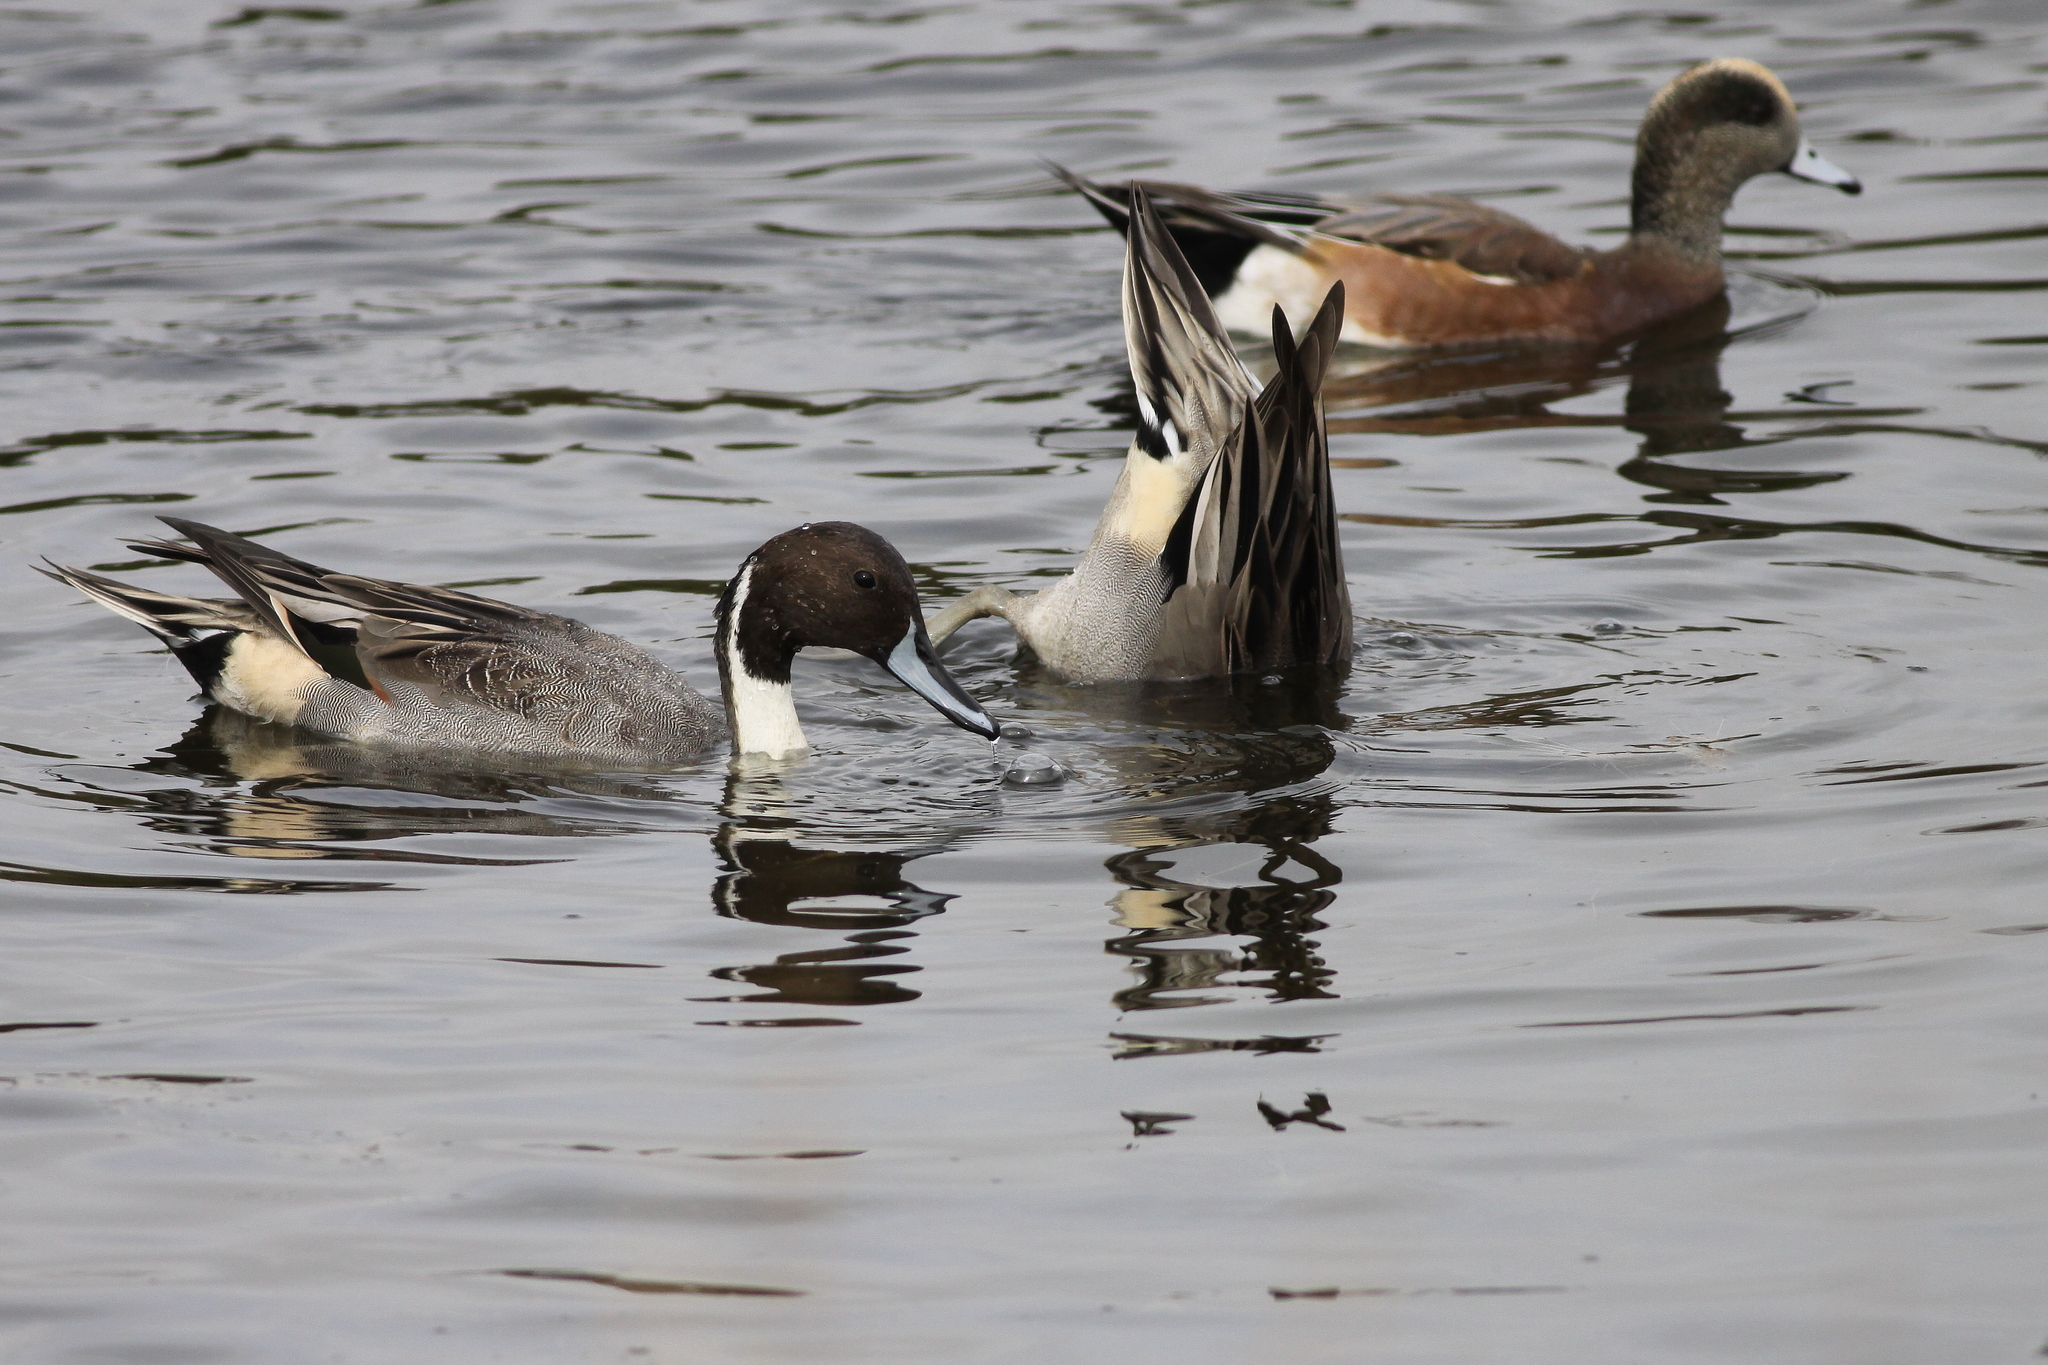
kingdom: Animalia
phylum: Chordata
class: Aves
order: Anseriformes
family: Anatidae
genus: Anas
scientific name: Anas acuta
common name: Northern pintail
